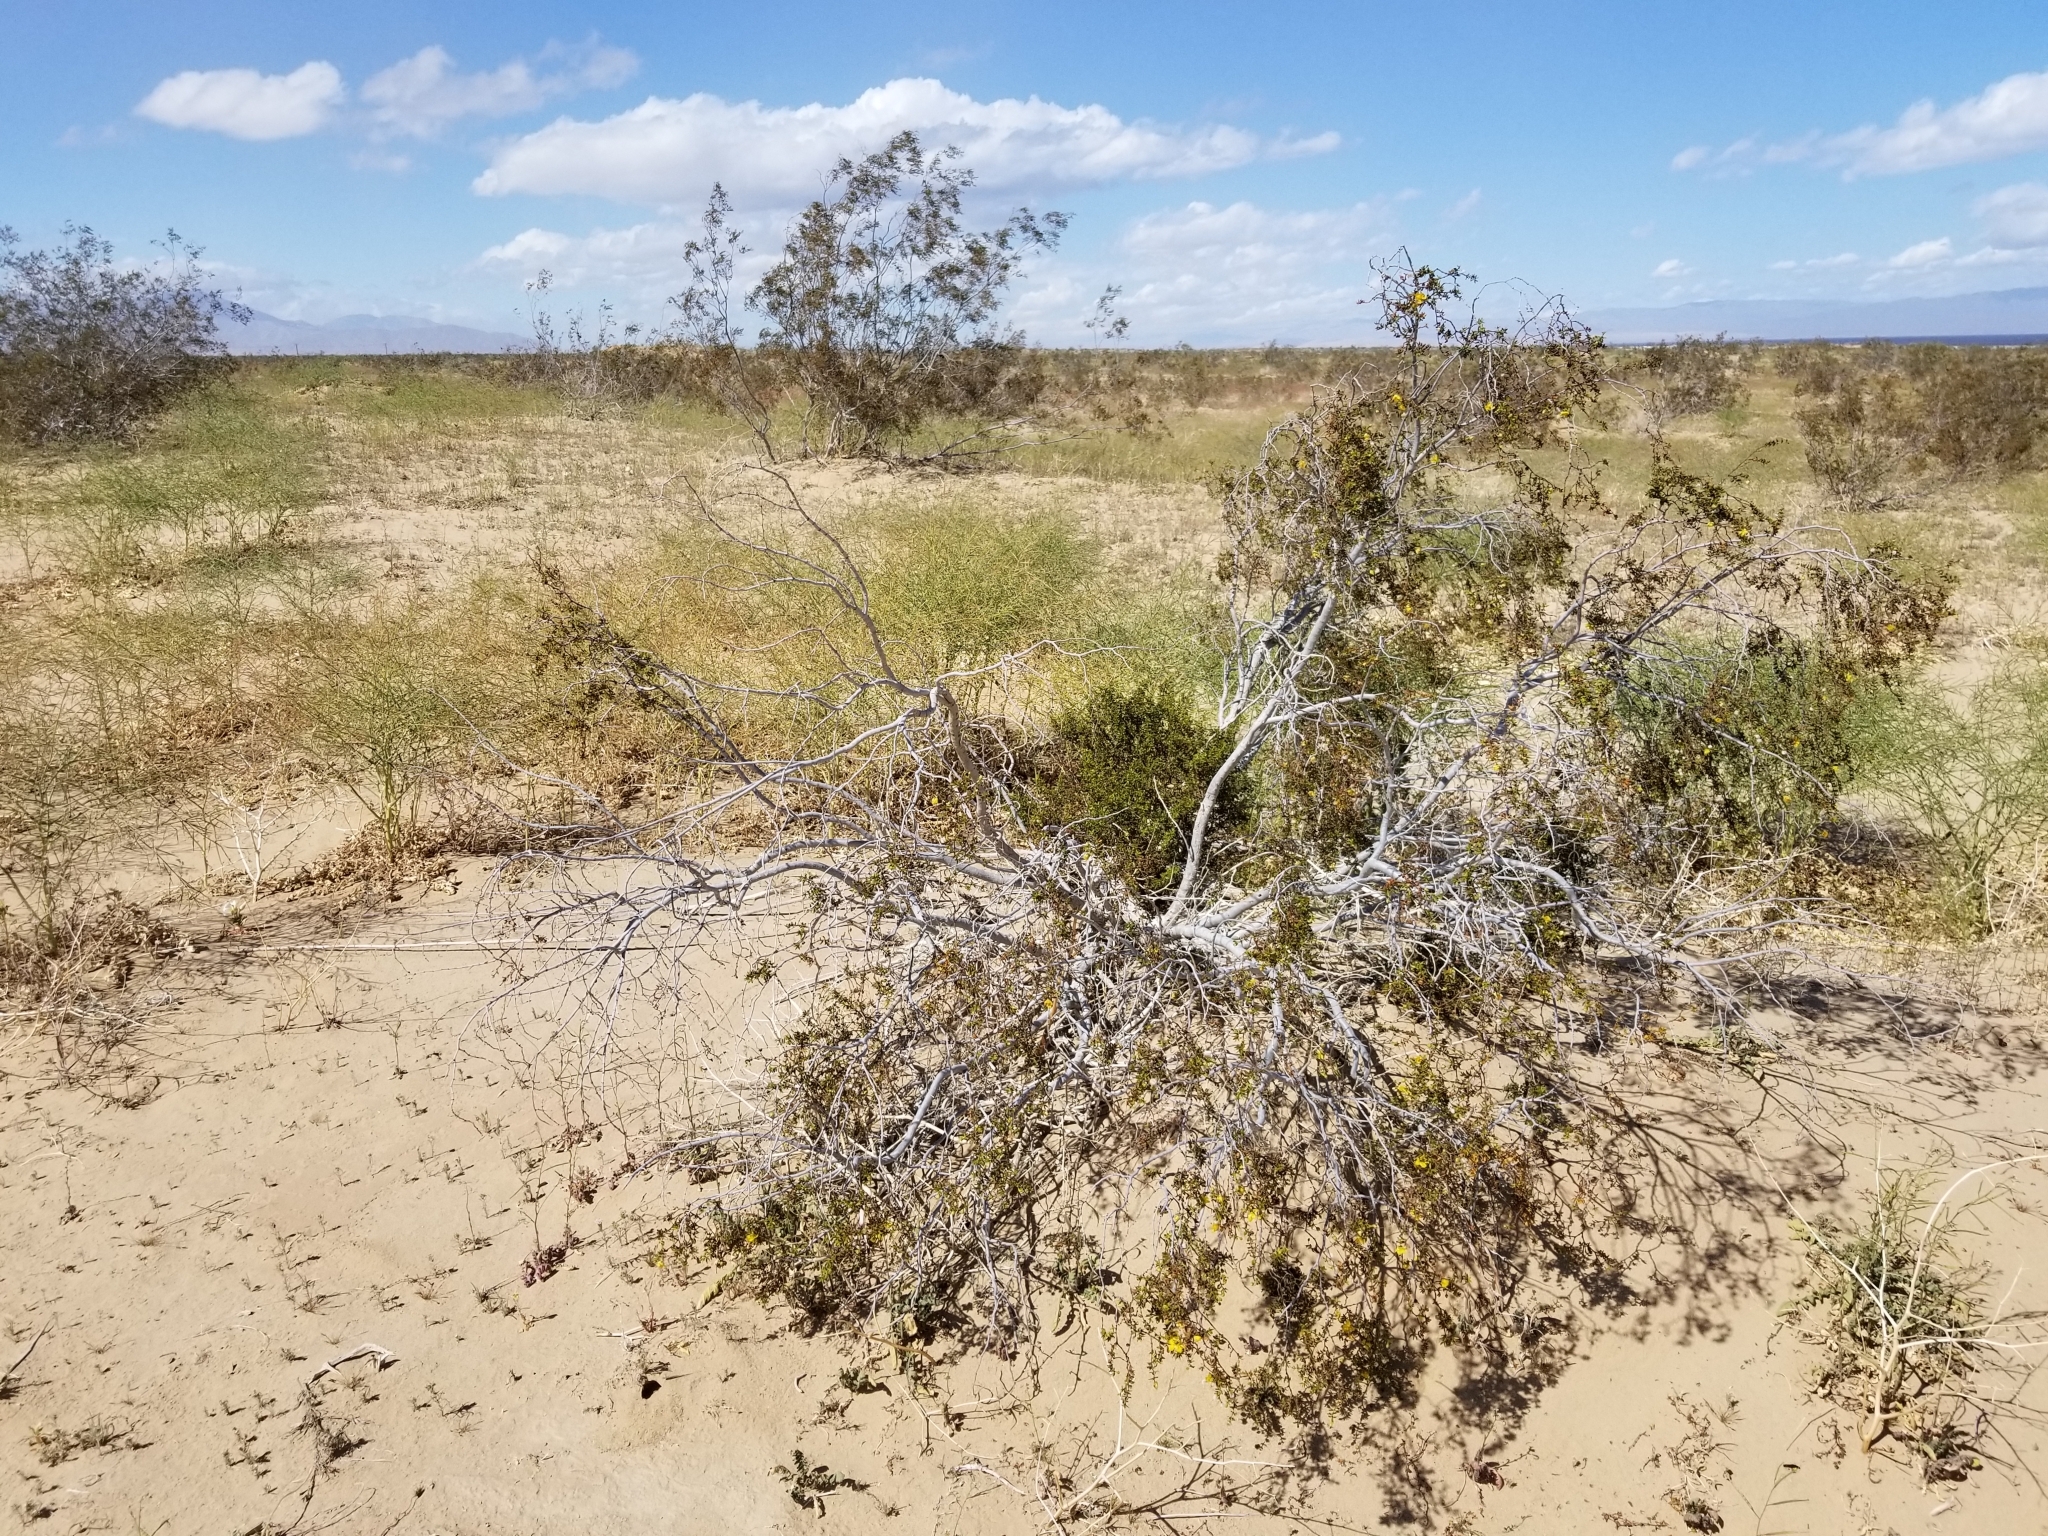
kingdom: Plantae
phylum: Tracheophyta
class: Magnoliopsida
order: Zygophyllales
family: Zygophyllaceae
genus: Larrea
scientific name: Larrea tridentata
